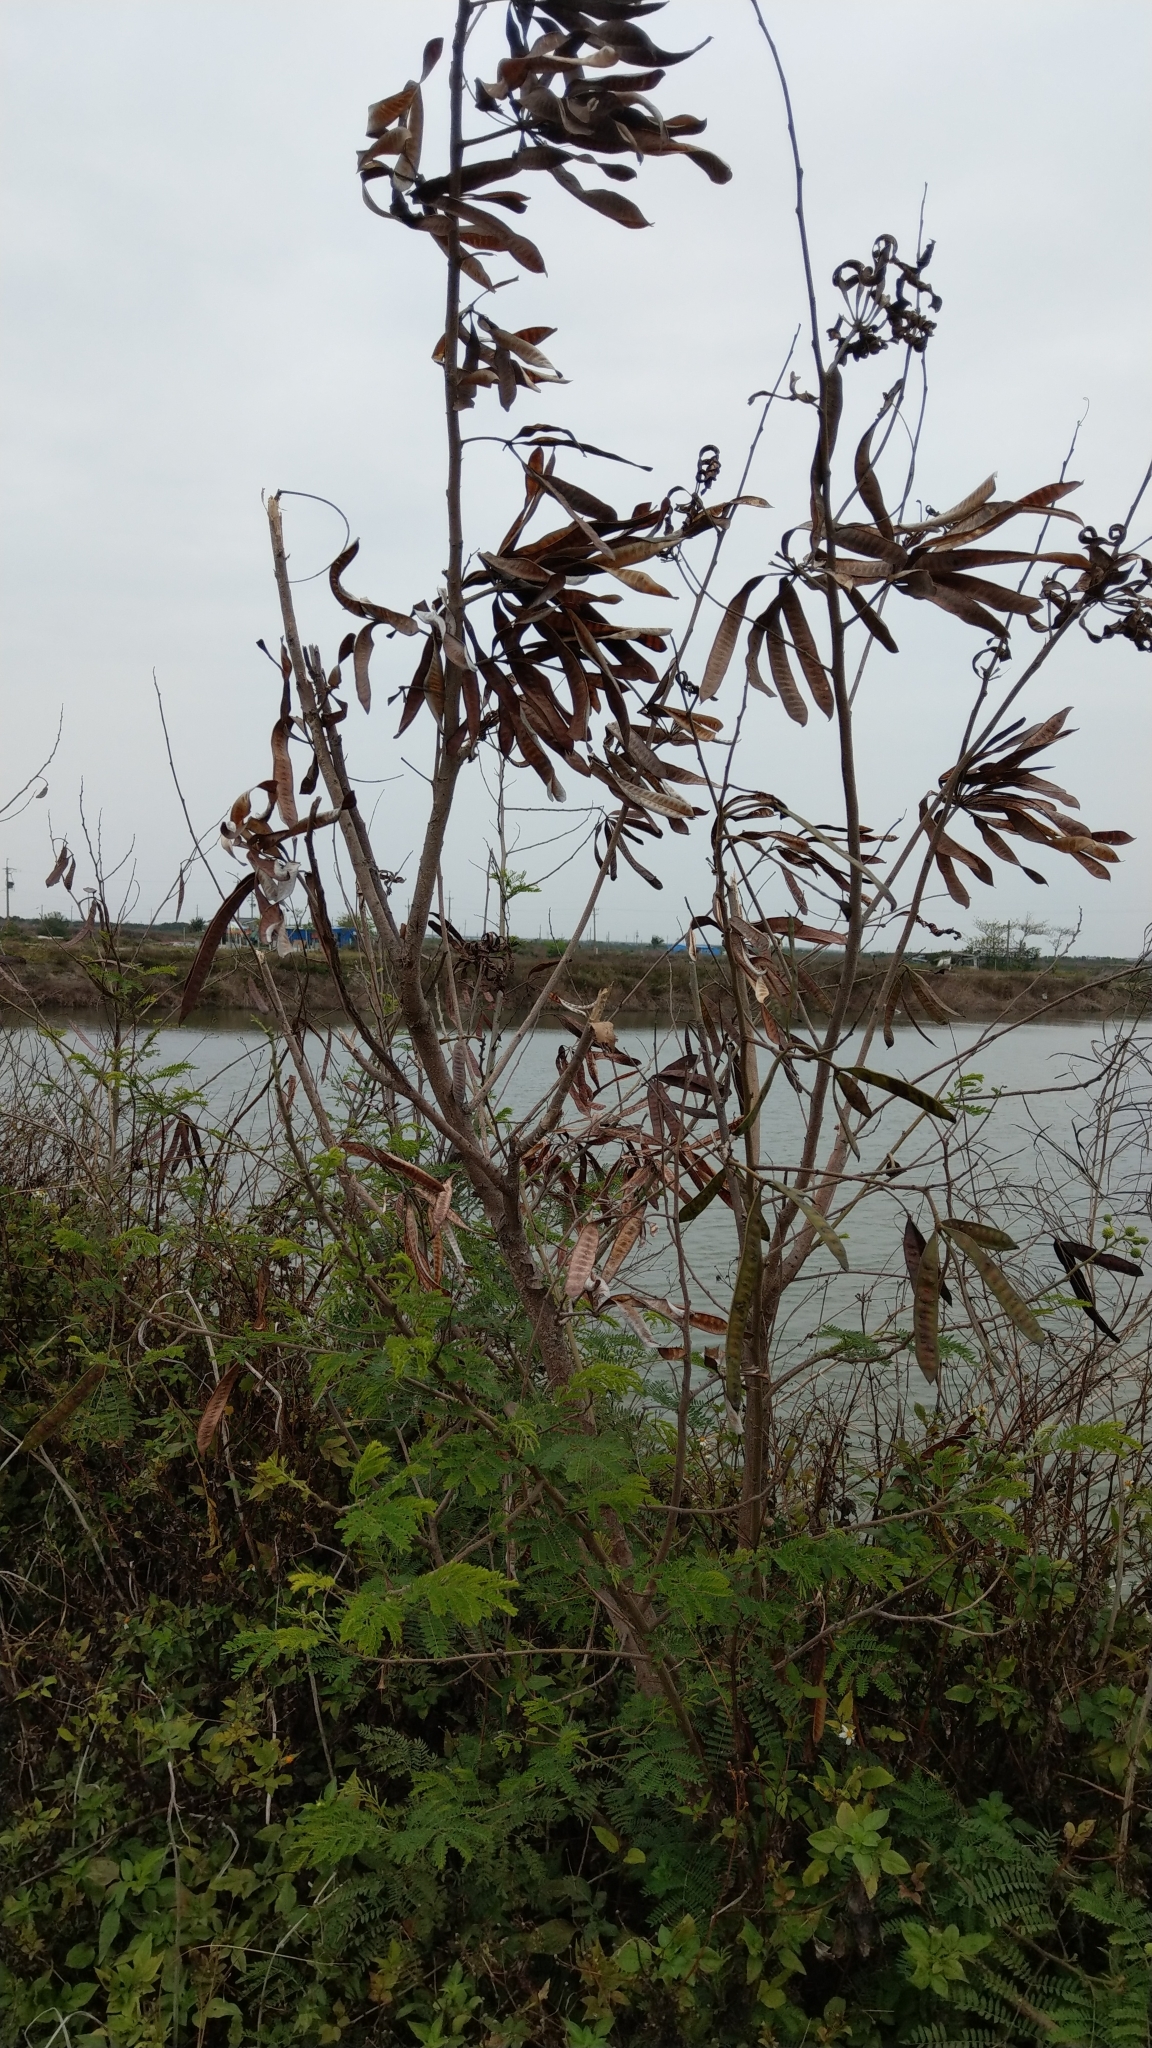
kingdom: Plantae
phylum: Tracheophyta
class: Magnoliopsida
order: Fabales
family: Fabaceae
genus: Leucaena
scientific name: Leucaena leucocephala
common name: White leadtree
